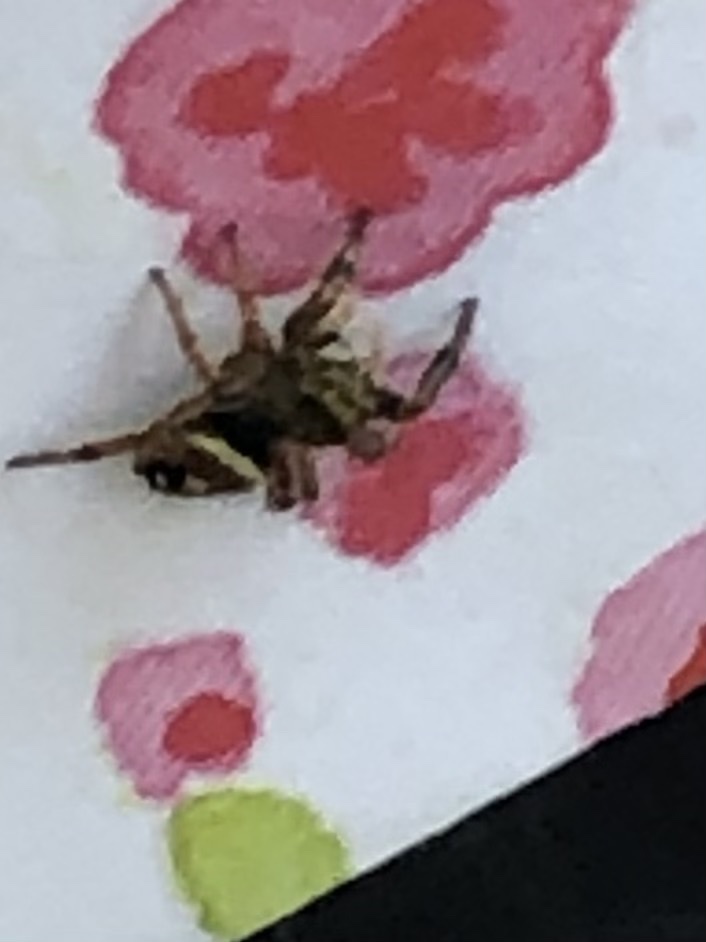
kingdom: Animalia
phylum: Arthropoda
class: Arachnida
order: Araneae
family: Salticidae
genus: Phidippus
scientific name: Phidippus audax
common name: Bold jumper
